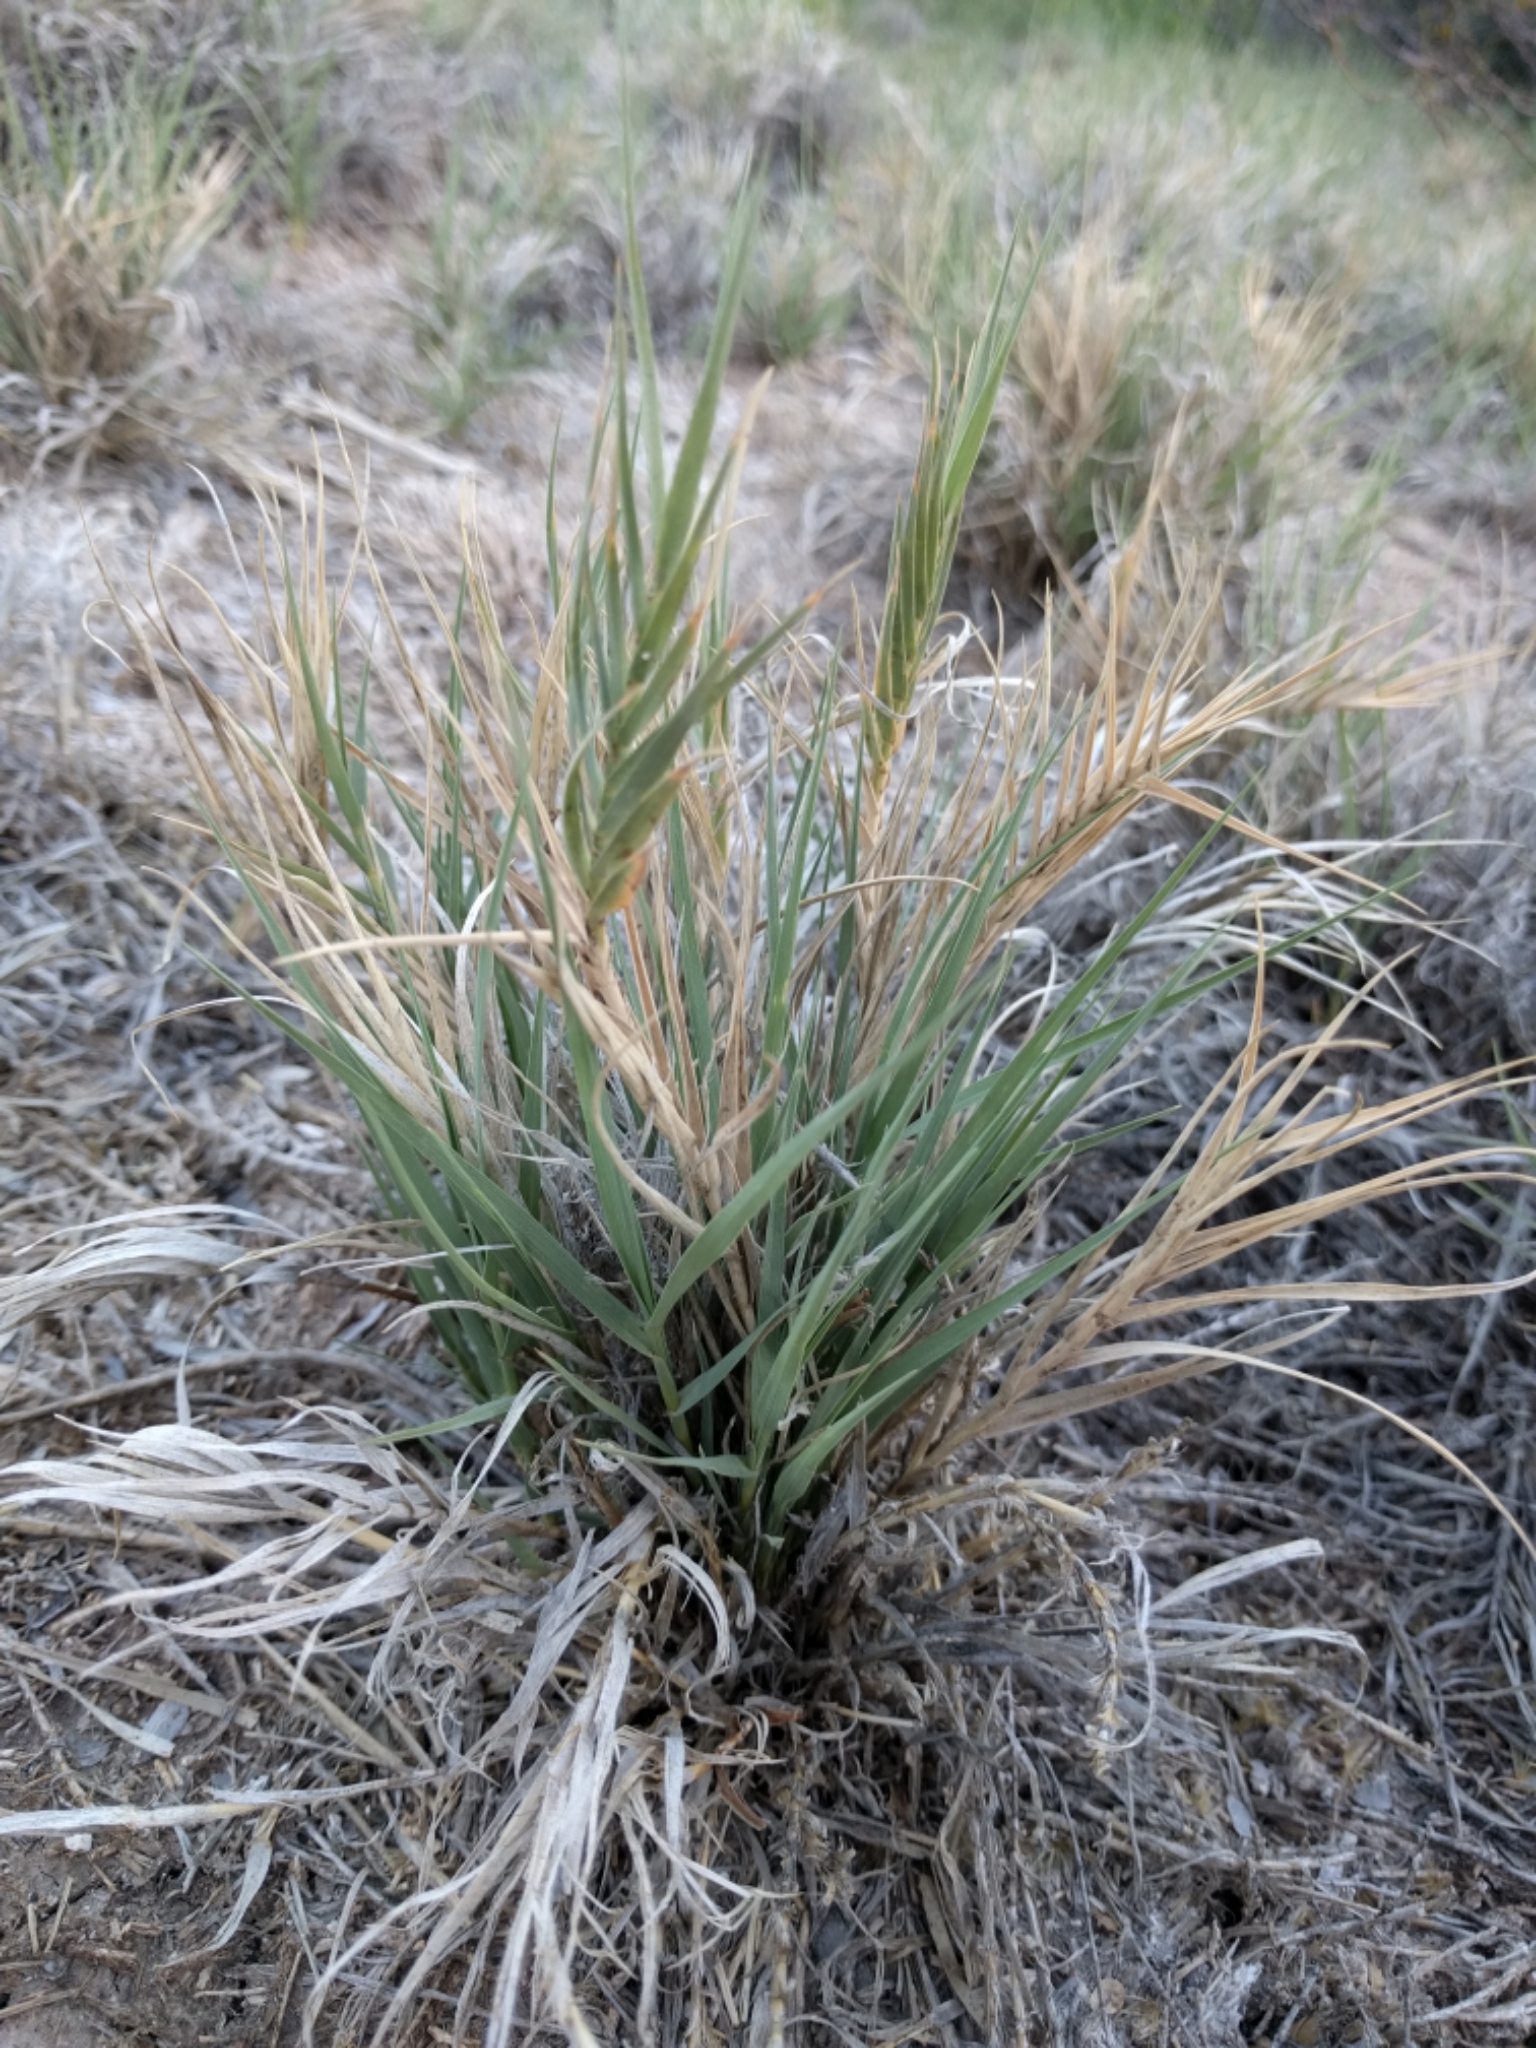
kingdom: Plantae
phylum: Tracheophyta
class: Liliopsida
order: Poales
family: Poaceae
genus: Distichlis
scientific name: Distichlis spicata
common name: Saltgrass
